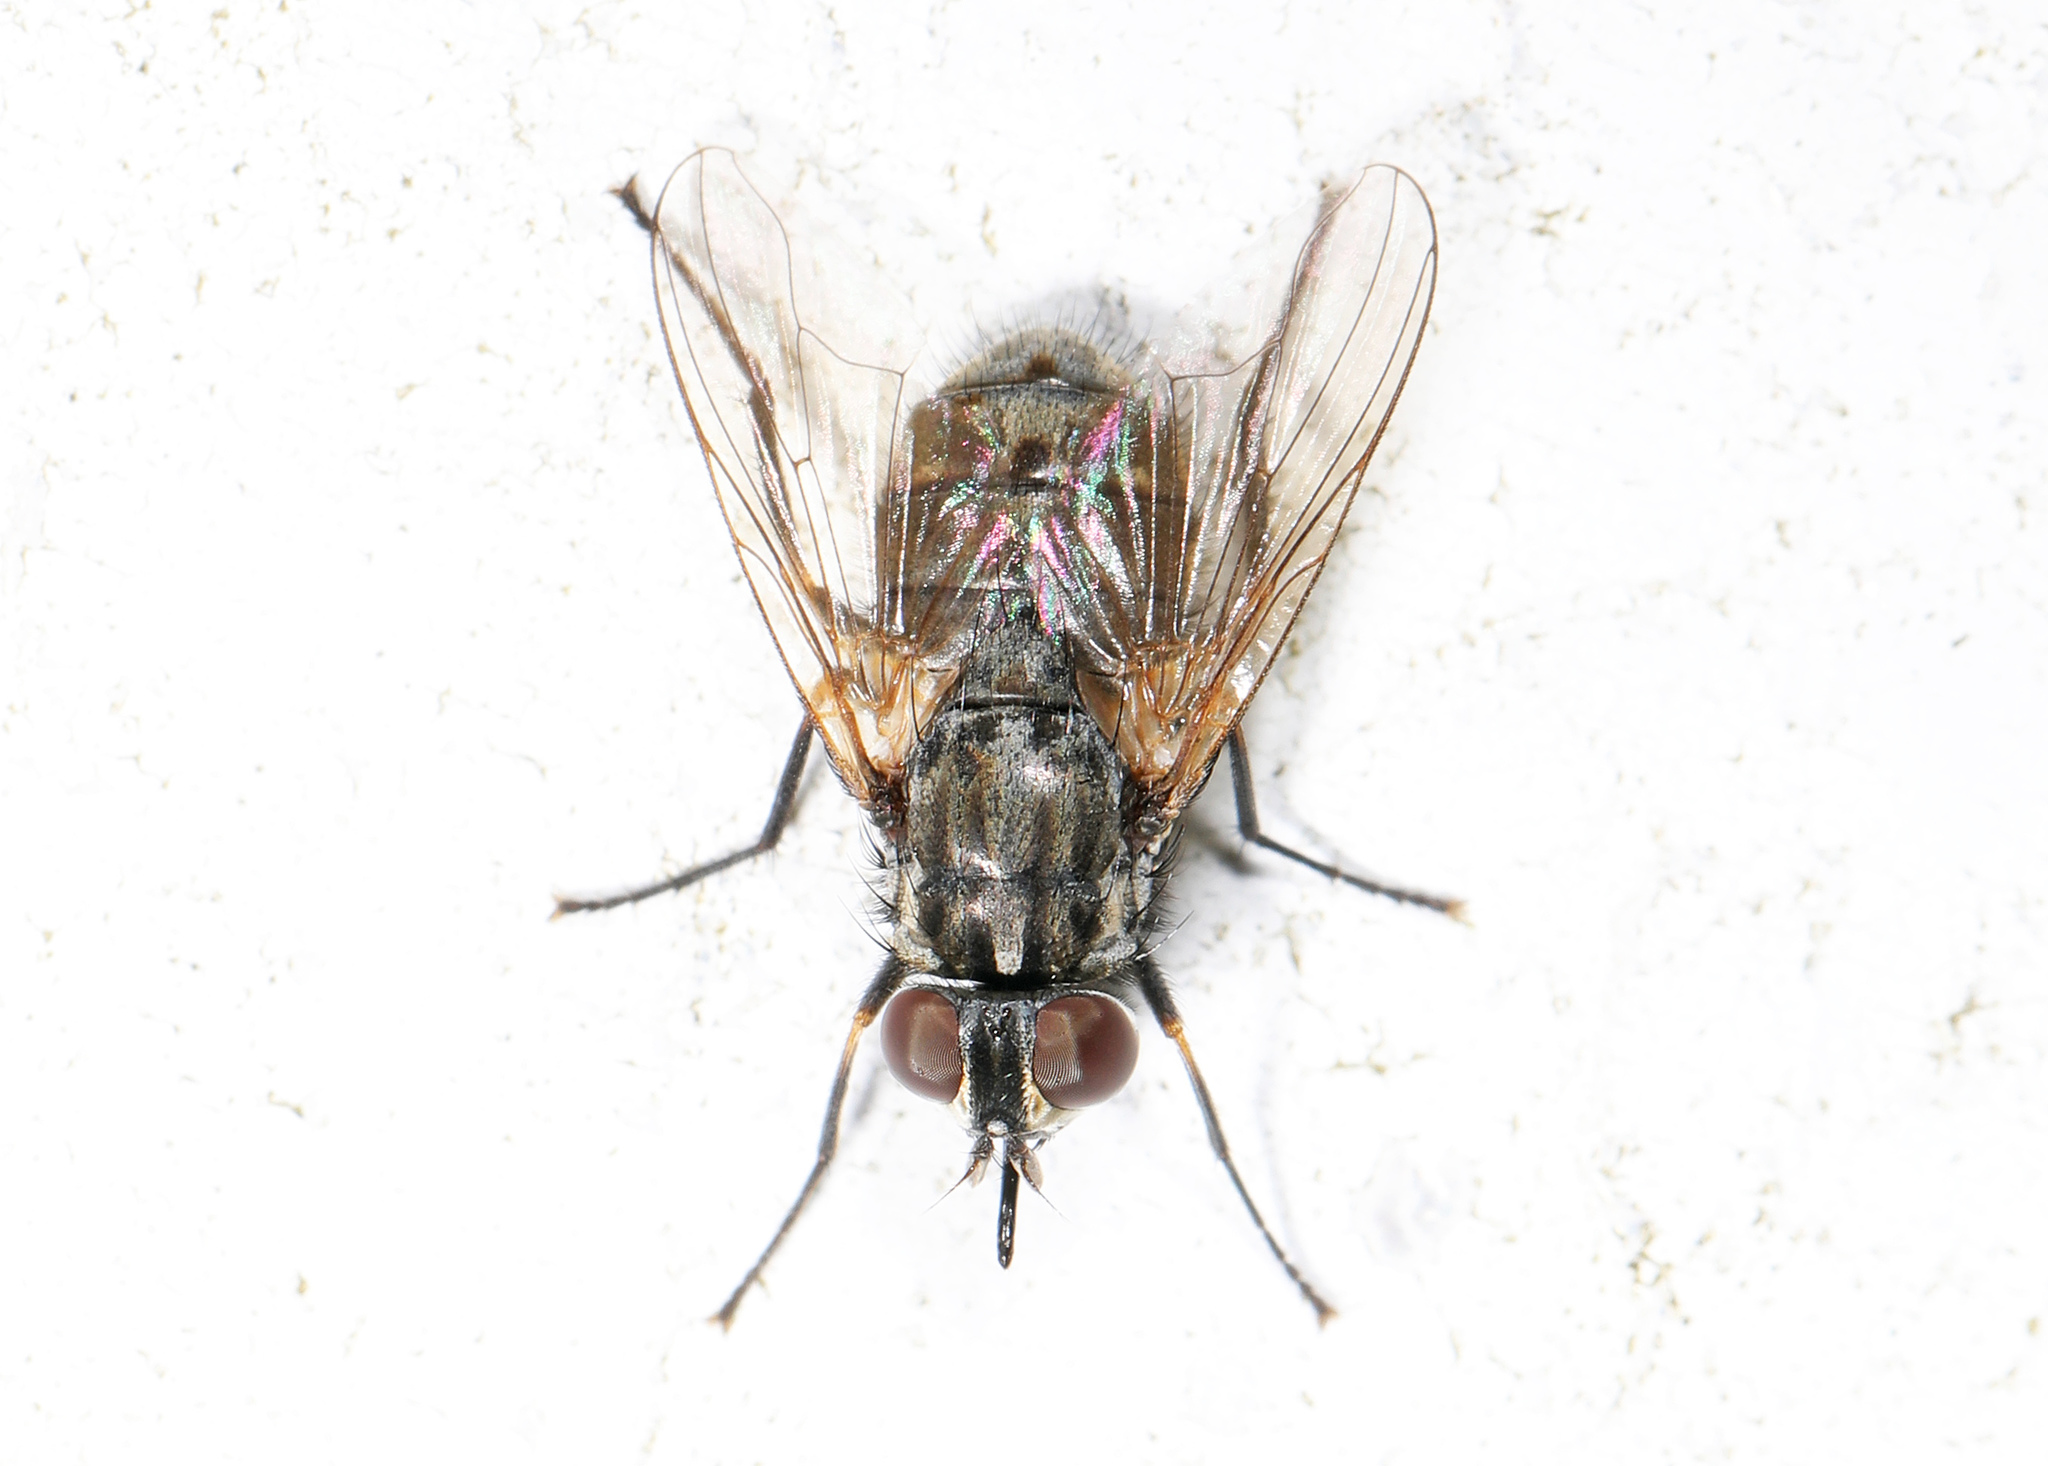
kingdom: Animalia
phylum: Arthropoda
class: Insecta
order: Diptera
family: Muscidae
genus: Stomoxys
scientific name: Stomoxys calcitrans
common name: Stable fly
